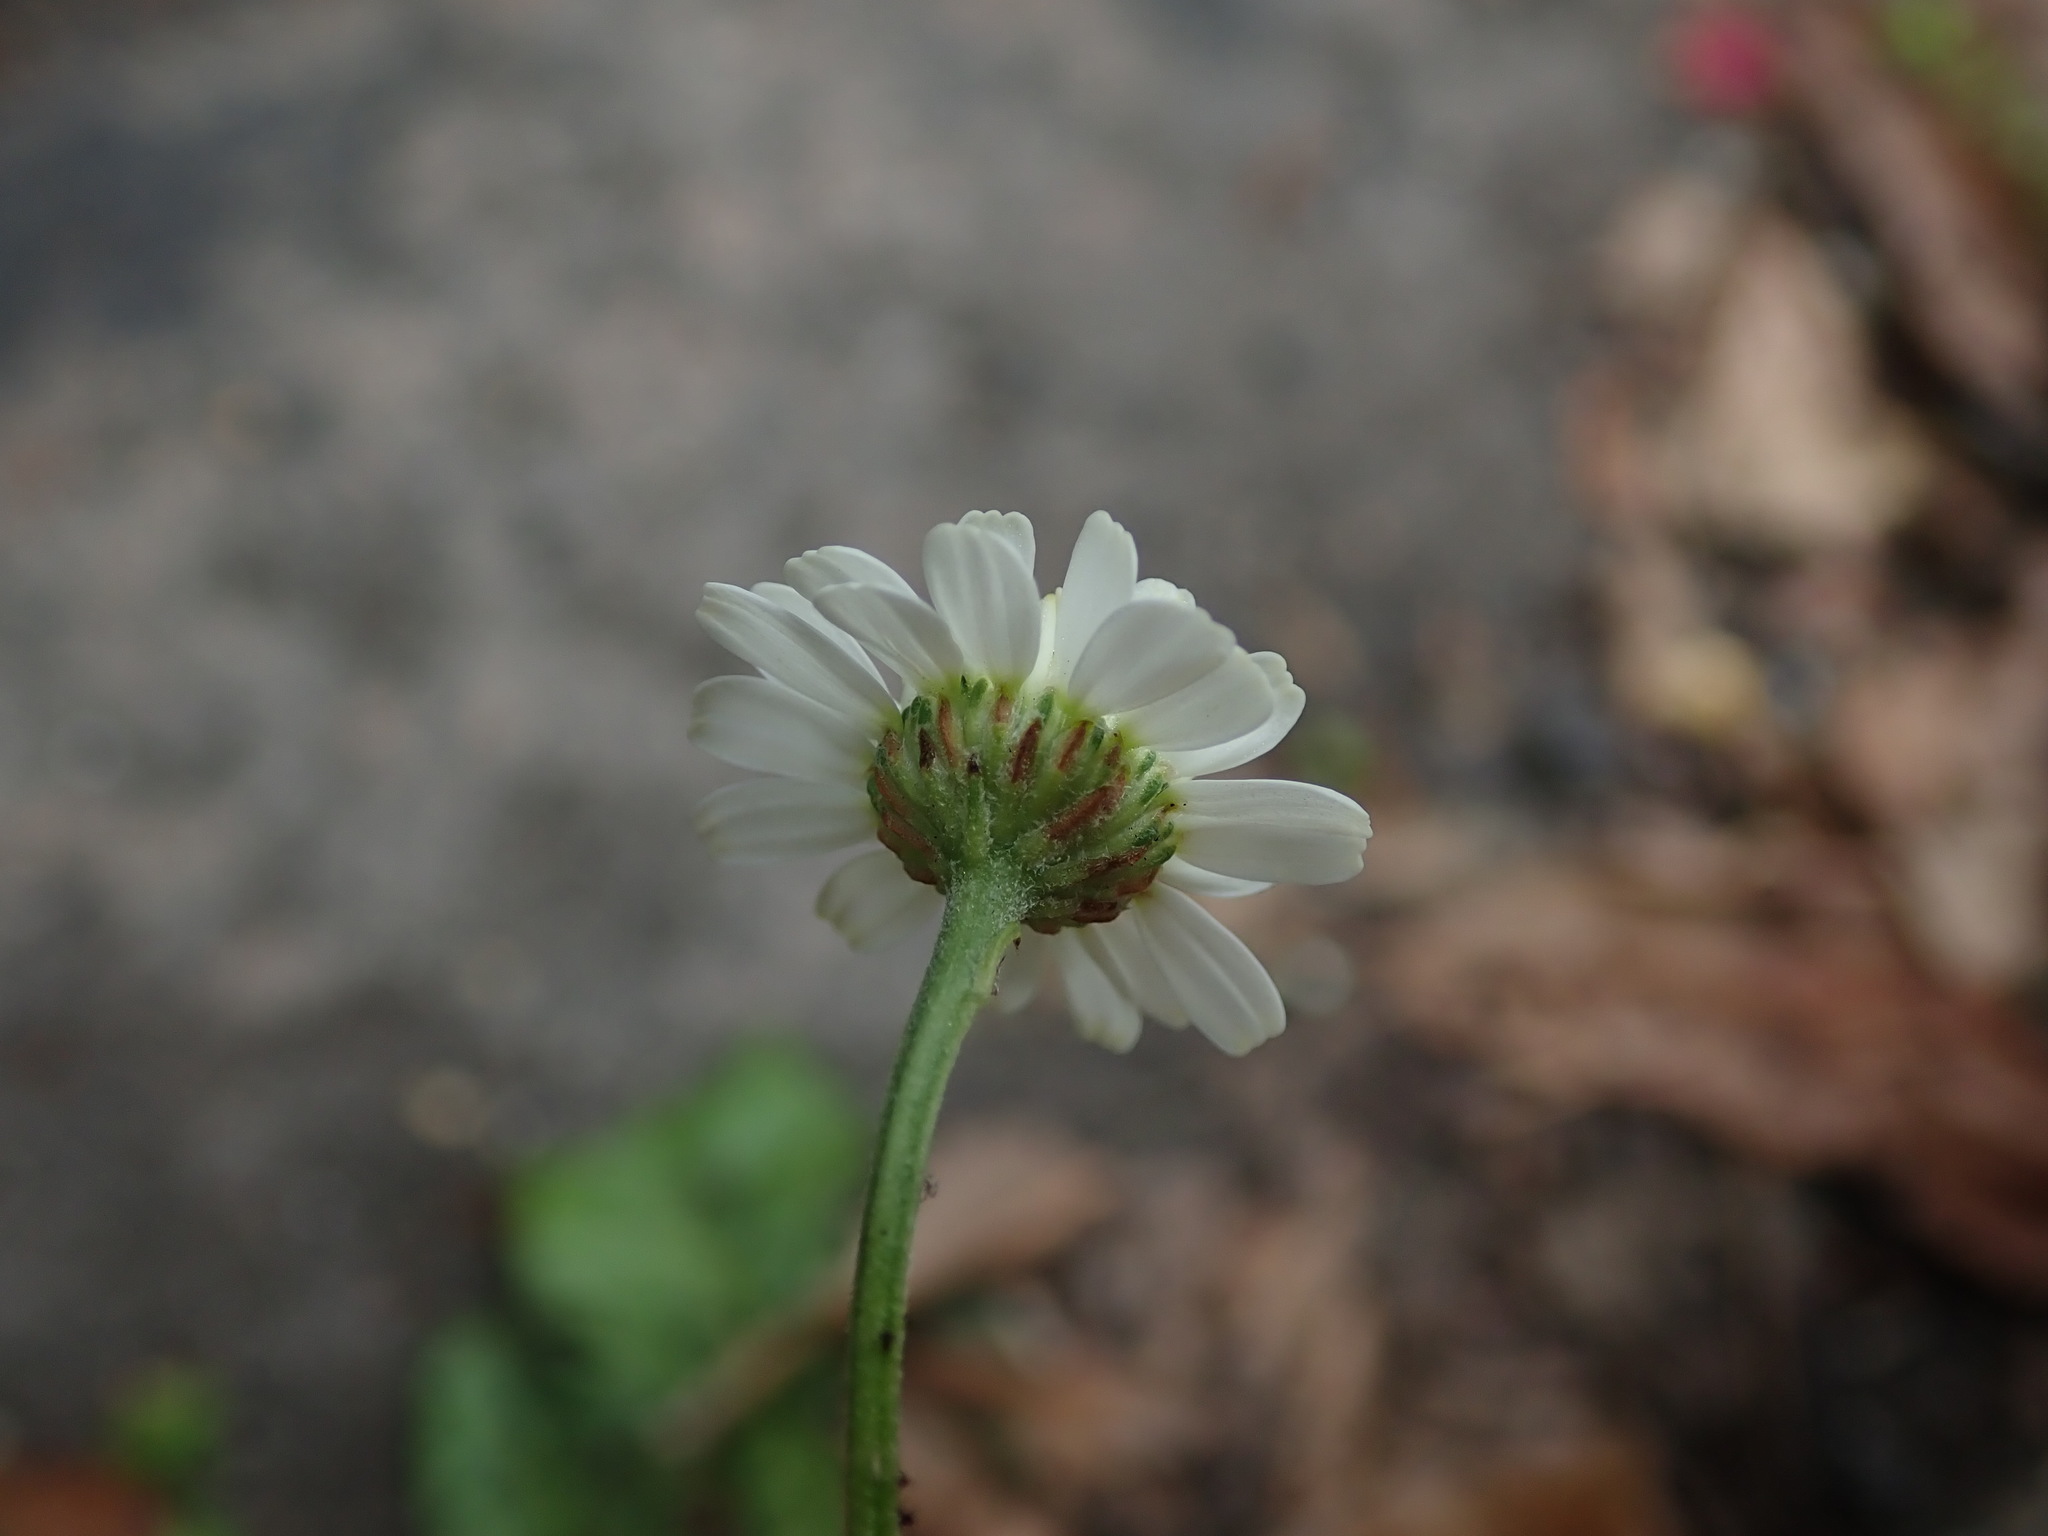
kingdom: Plantae
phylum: Tracheophyta
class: Magnoliopsida
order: Asterales
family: Asteraceae
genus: Tanacetum
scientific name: Tanacetum parthenium
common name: Feverfew
